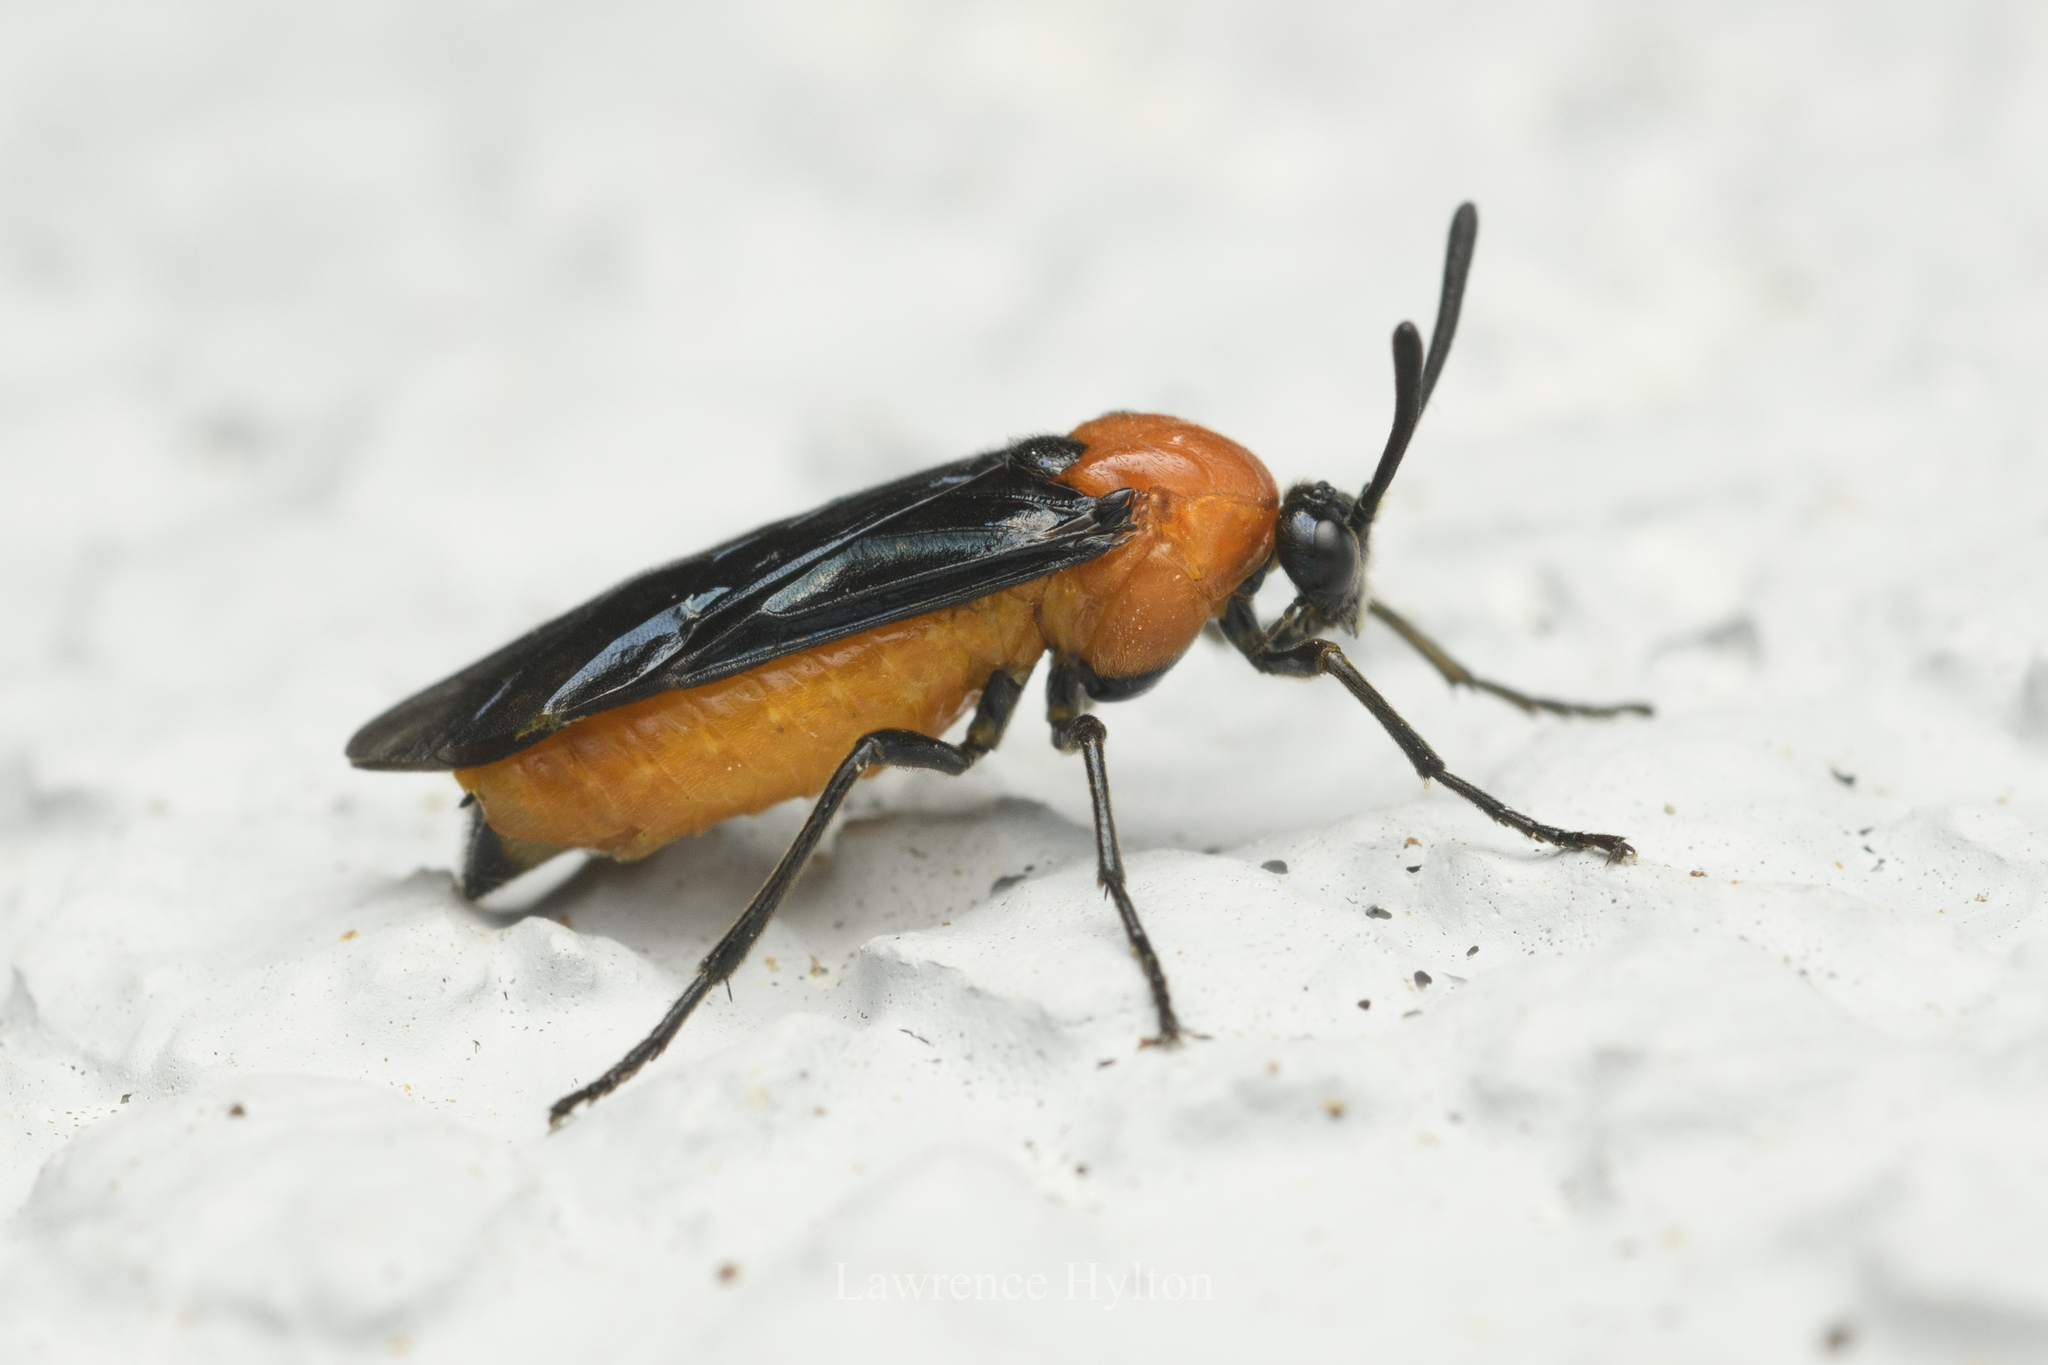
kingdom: Animalia
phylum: Arthropoda
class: Insecta
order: Hymenoptera
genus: Tanyphatnidea
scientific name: Tanyphatnidea
